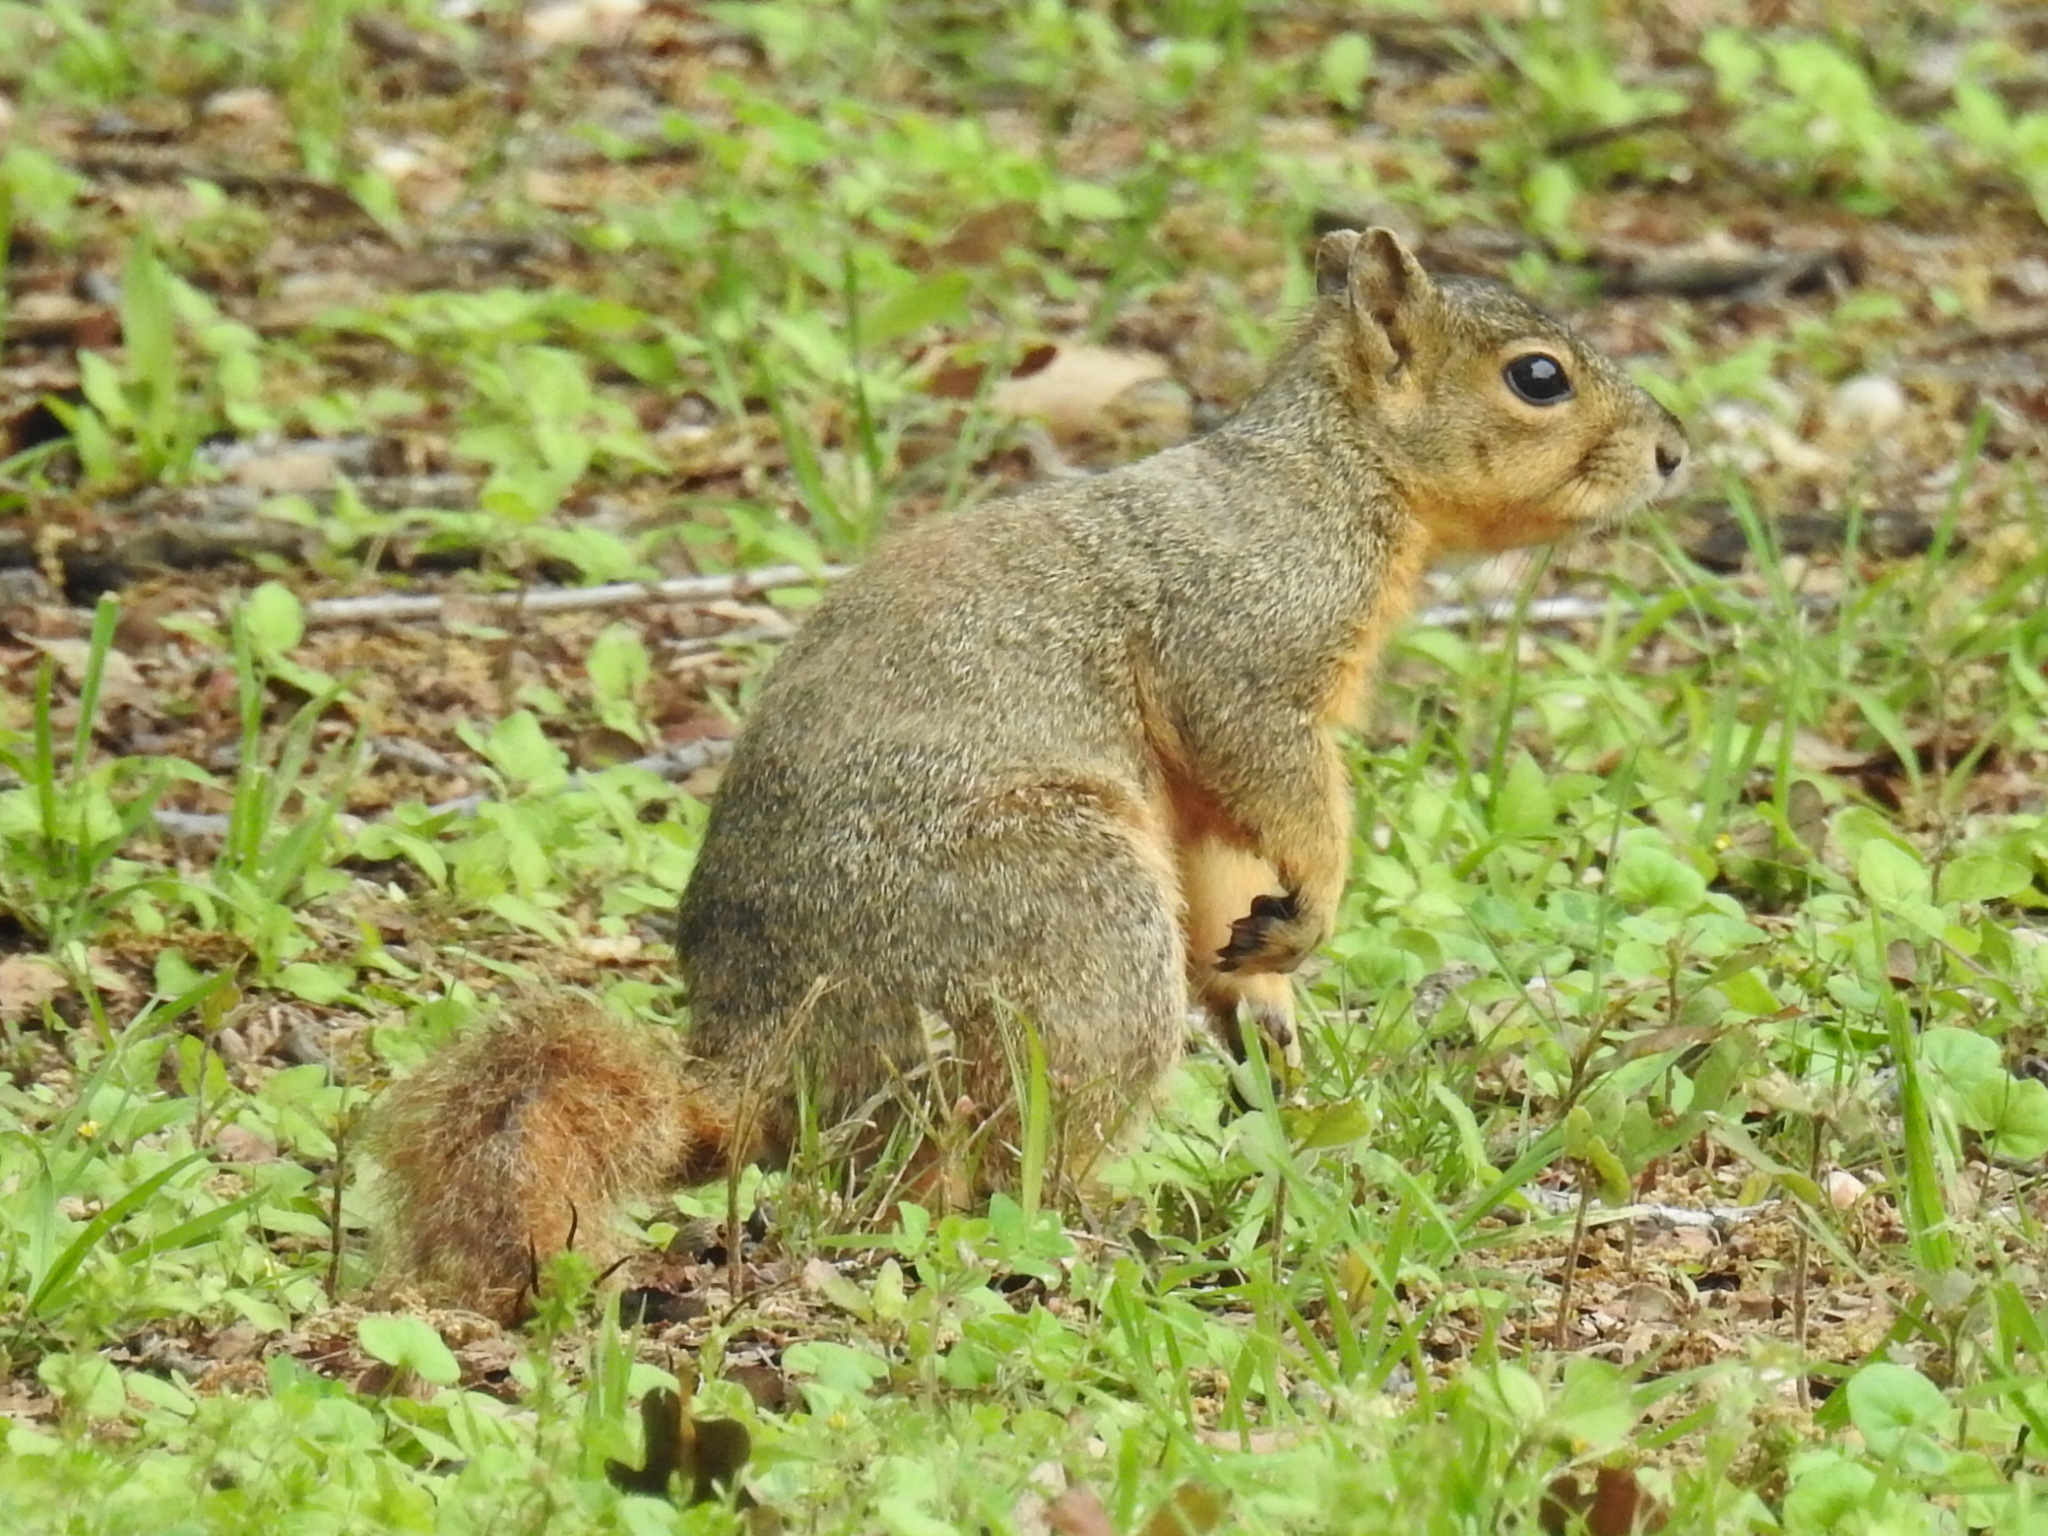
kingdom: Animalia
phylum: Chordata
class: Mammalia
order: Rodentia
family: Sciuridae
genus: Sciurus
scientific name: Sciurus niger
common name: Fox squirrel
